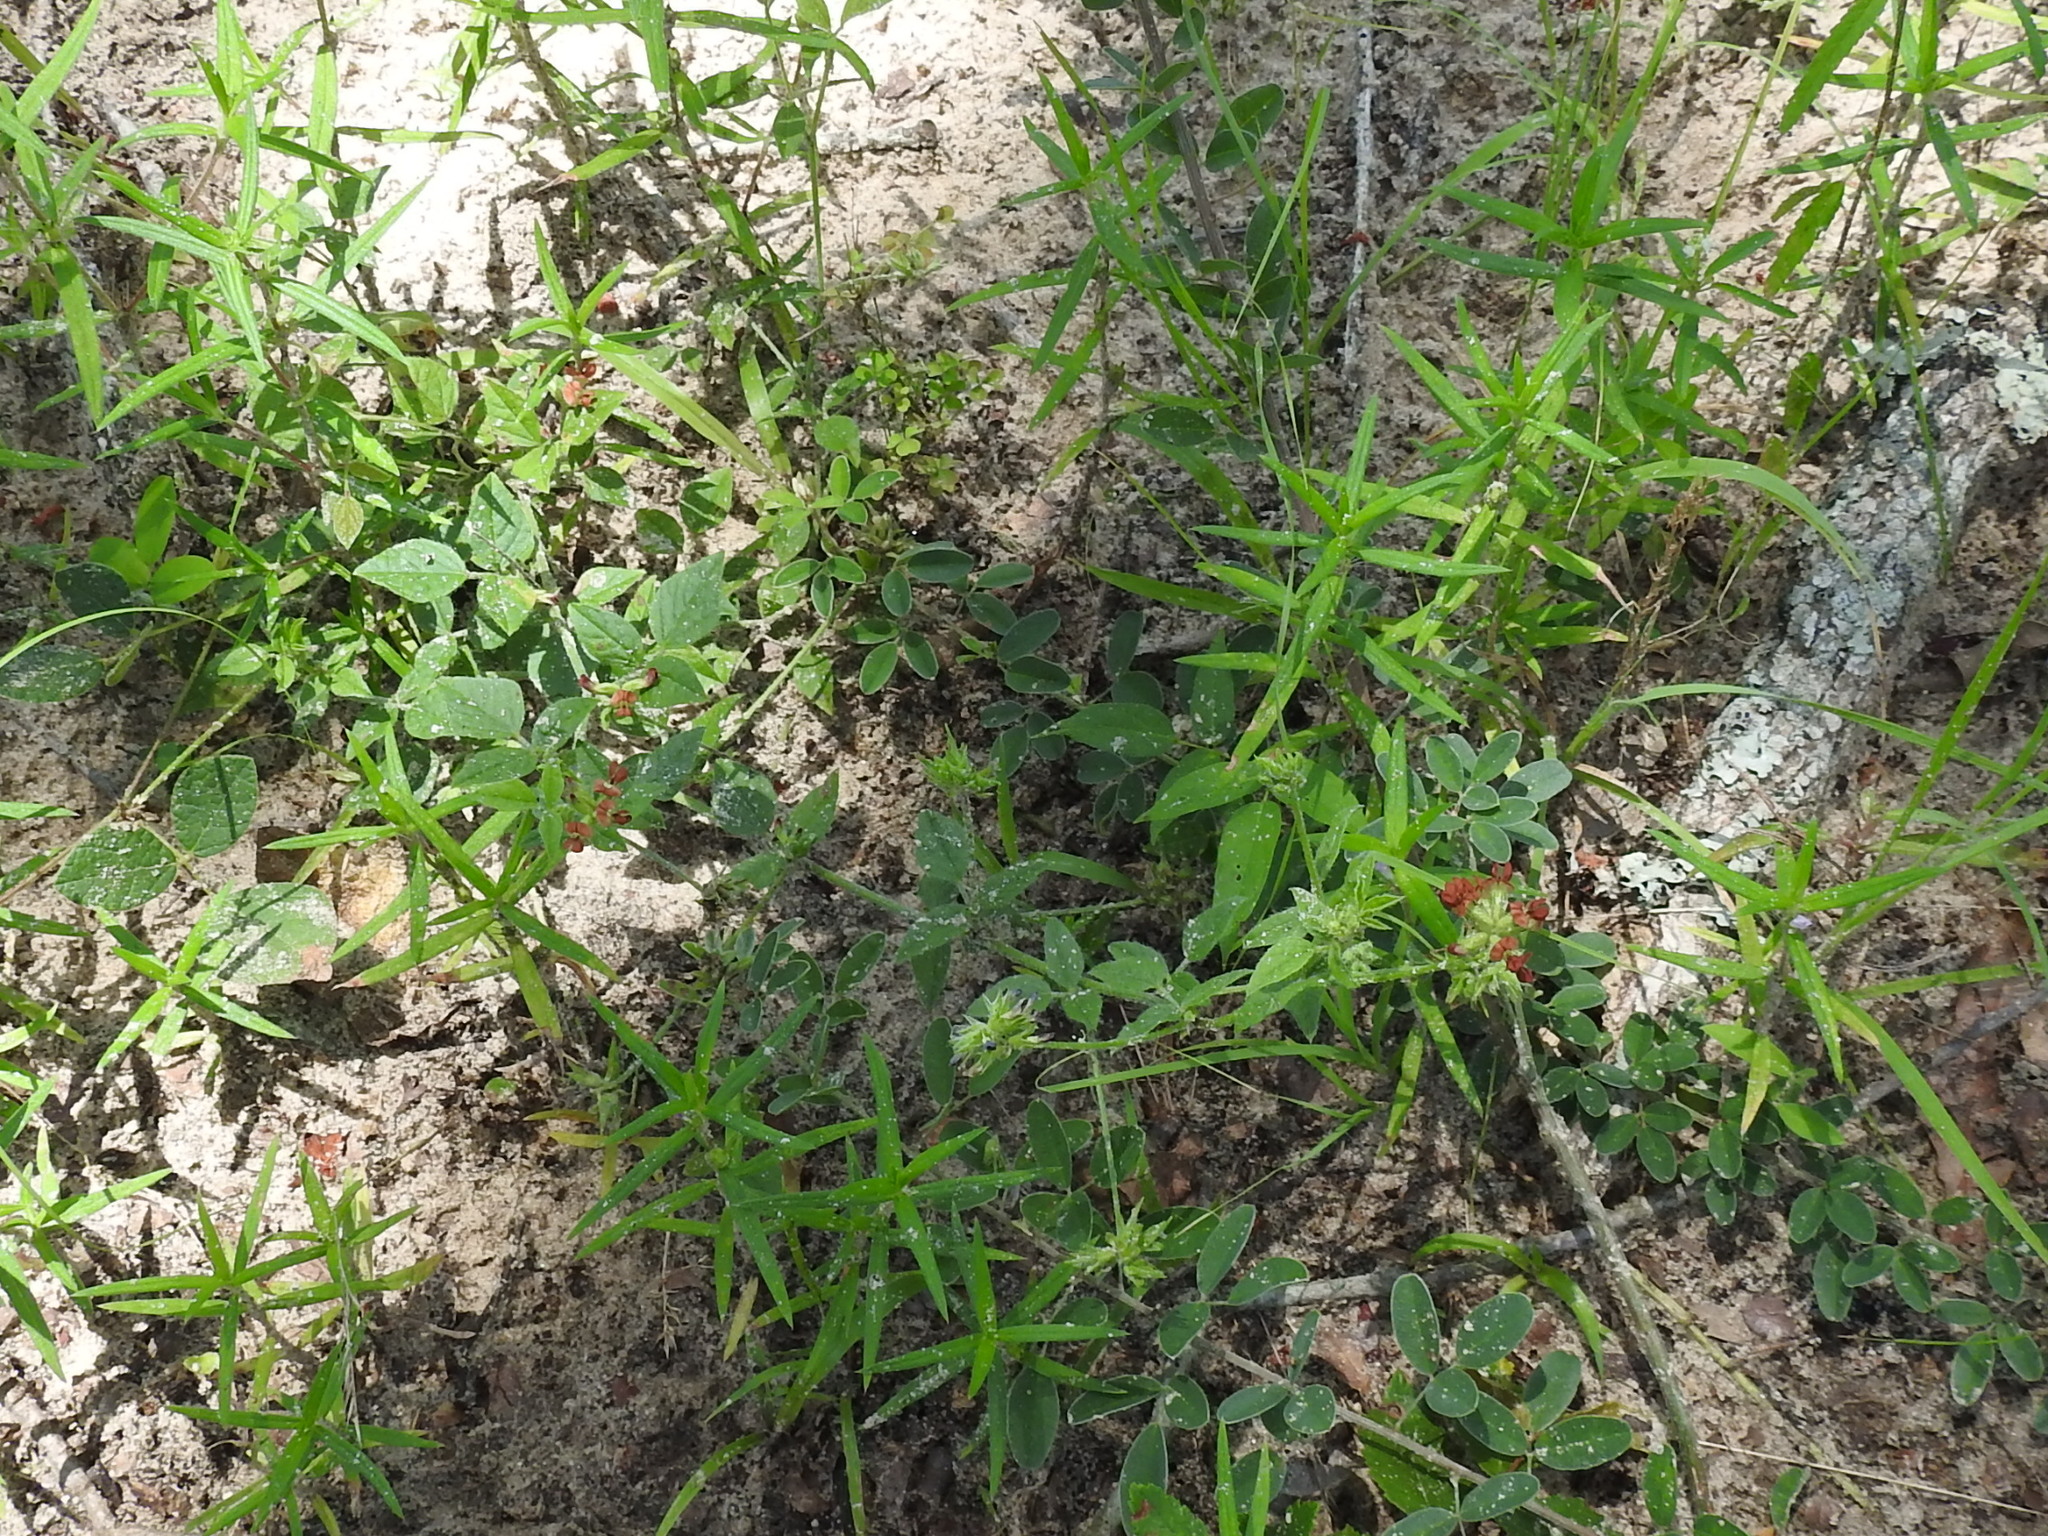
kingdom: Plantae
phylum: Tracheophyta
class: Magnoliopsida
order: Fabales
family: Fabaceae
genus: Pediomelum
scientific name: Pediomelum rhombifolium
